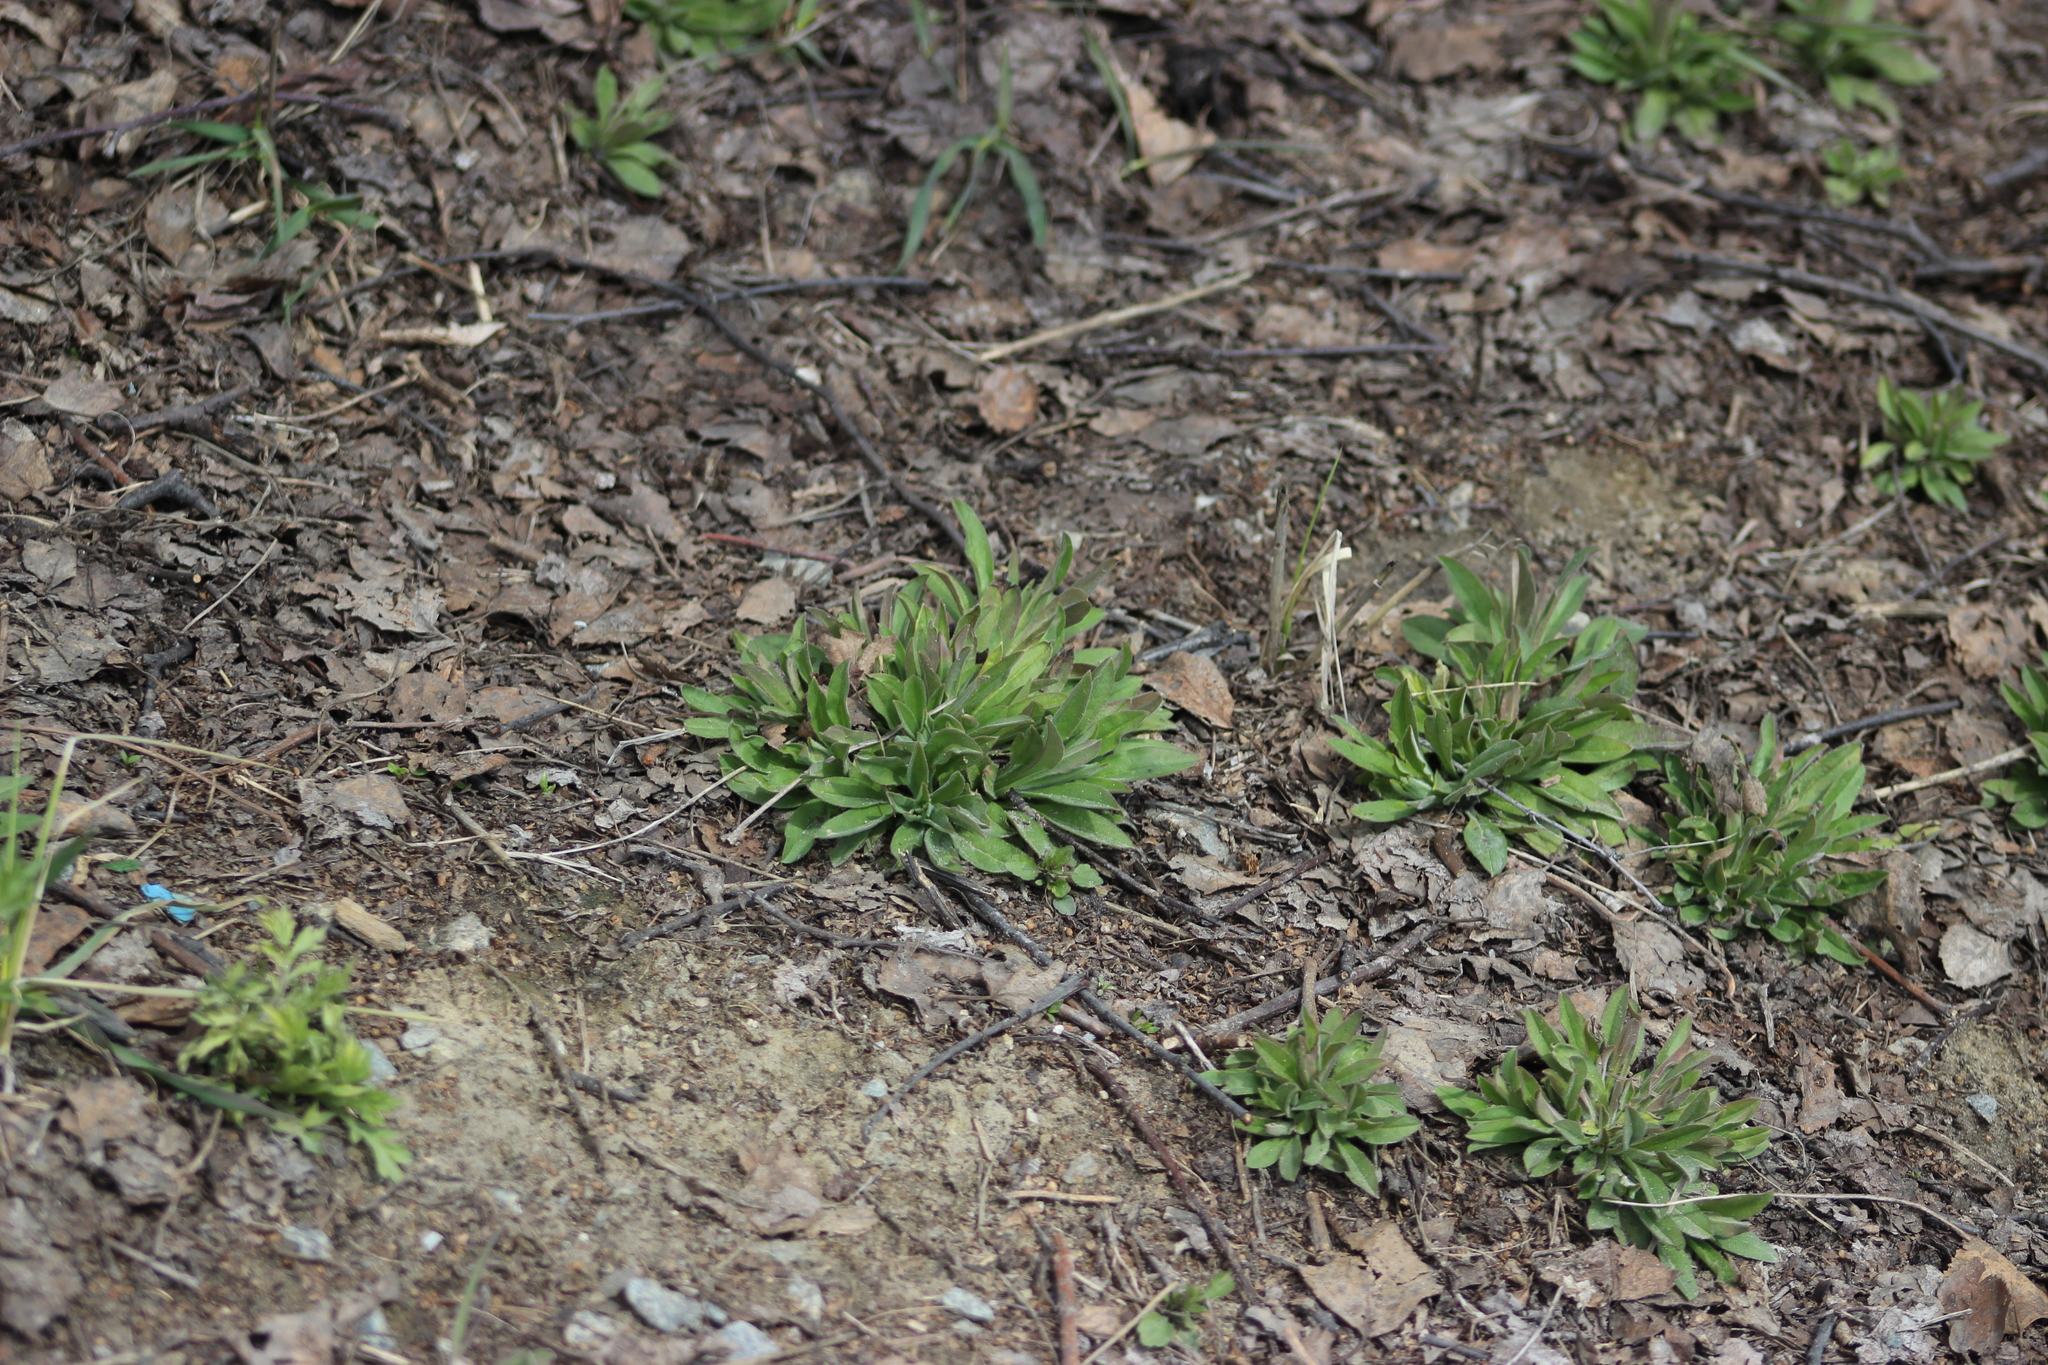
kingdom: Plantae
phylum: Tracheophyta
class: Magnoliopsida
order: Brassicales
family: Brassicaceae
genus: Berteroa
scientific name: Berteroa incana
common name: Hoary alison
